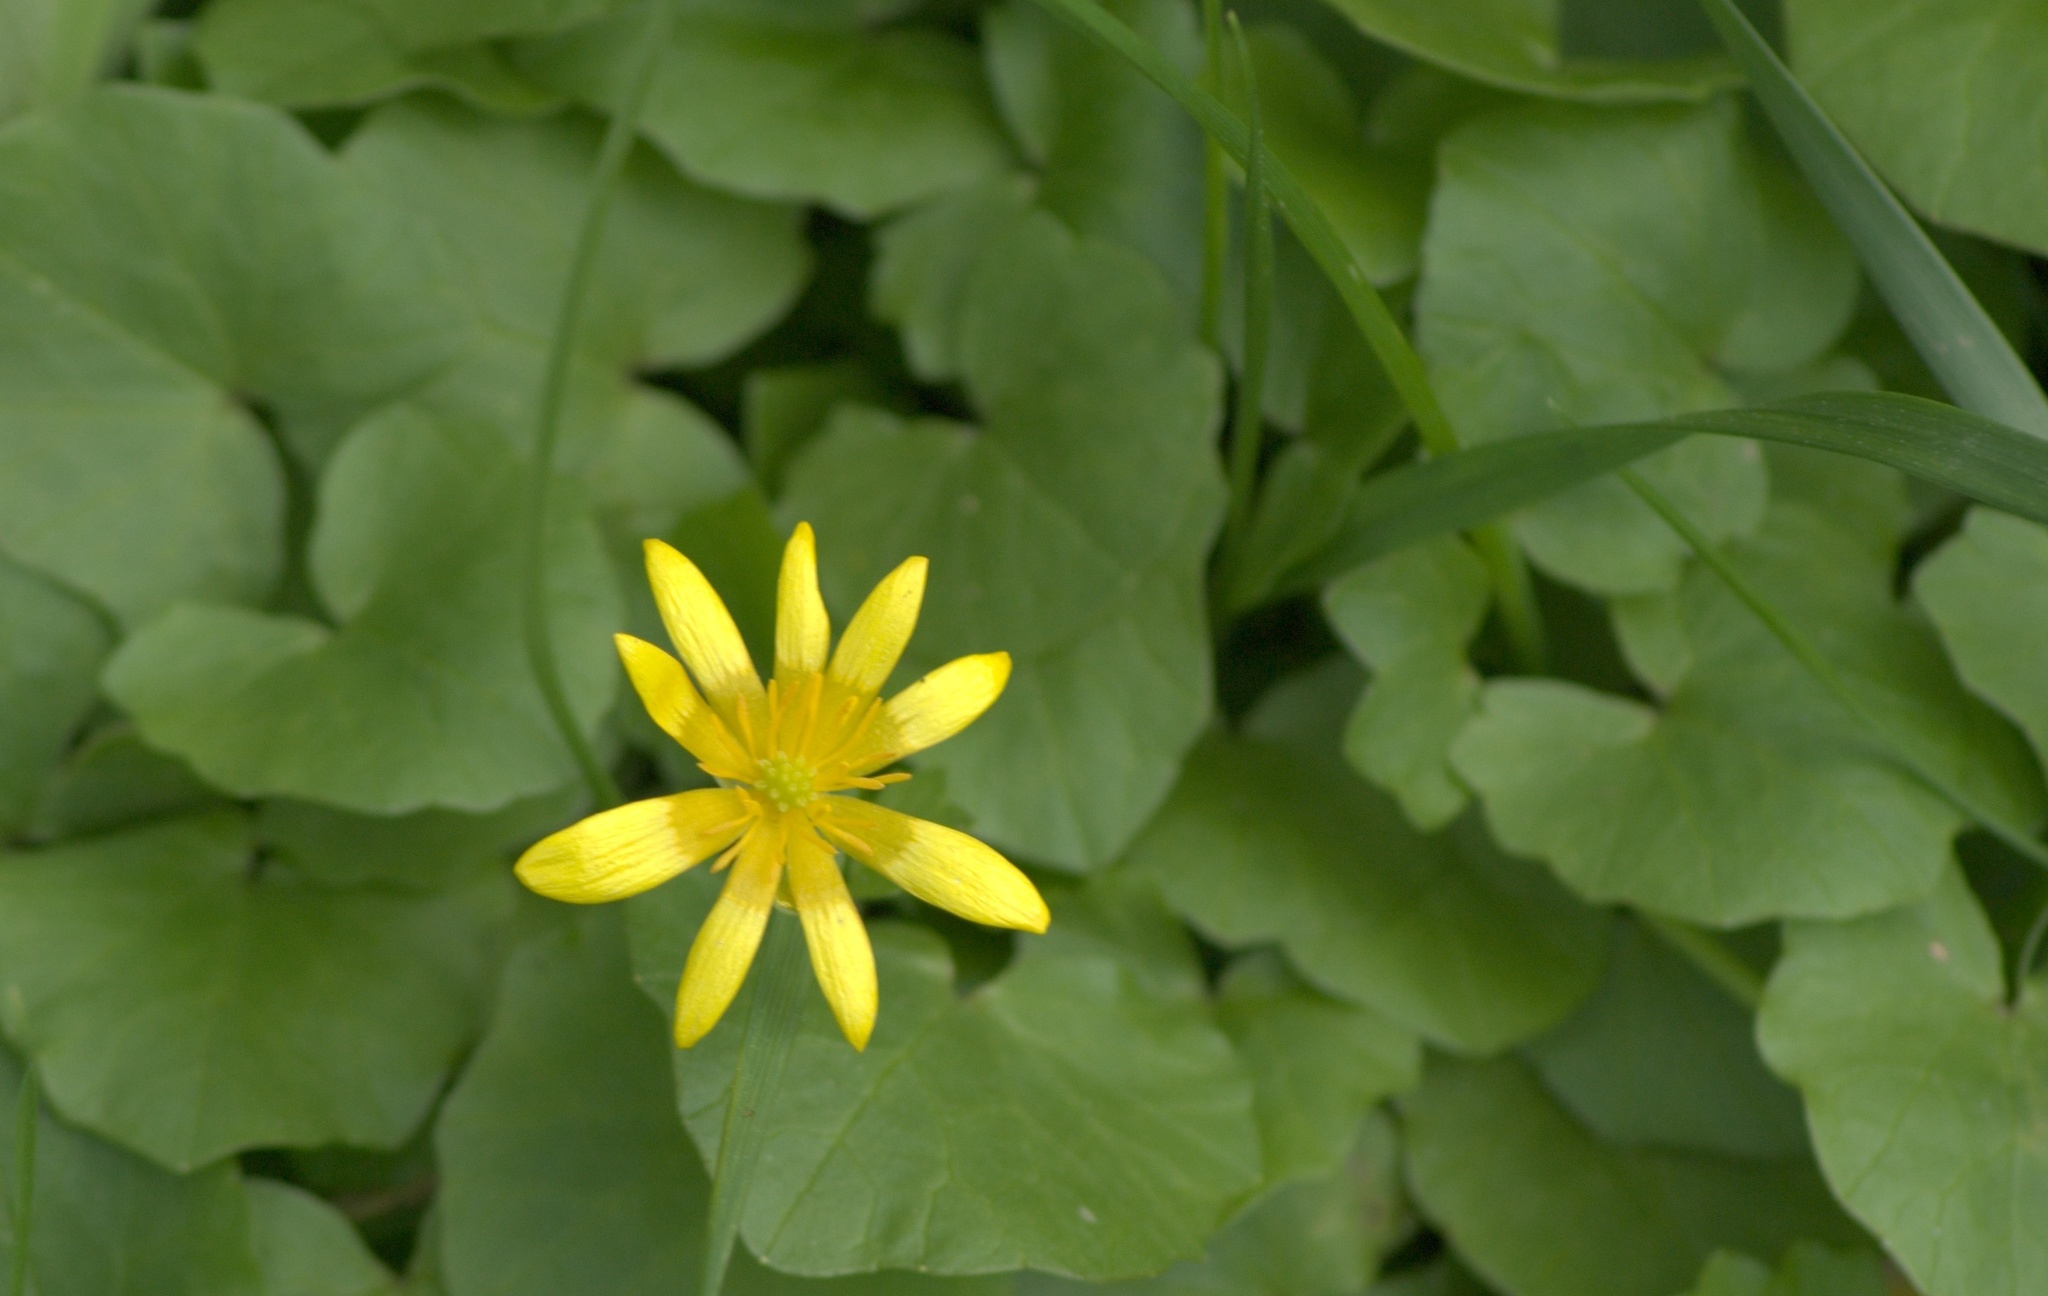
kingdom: Plantae
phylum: Tracheophyta
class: Magnoliopsida
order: Ranunculales
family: Ranunculaceae
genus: Ficaria
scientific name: Ficaria verna
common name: Lesser celandine
